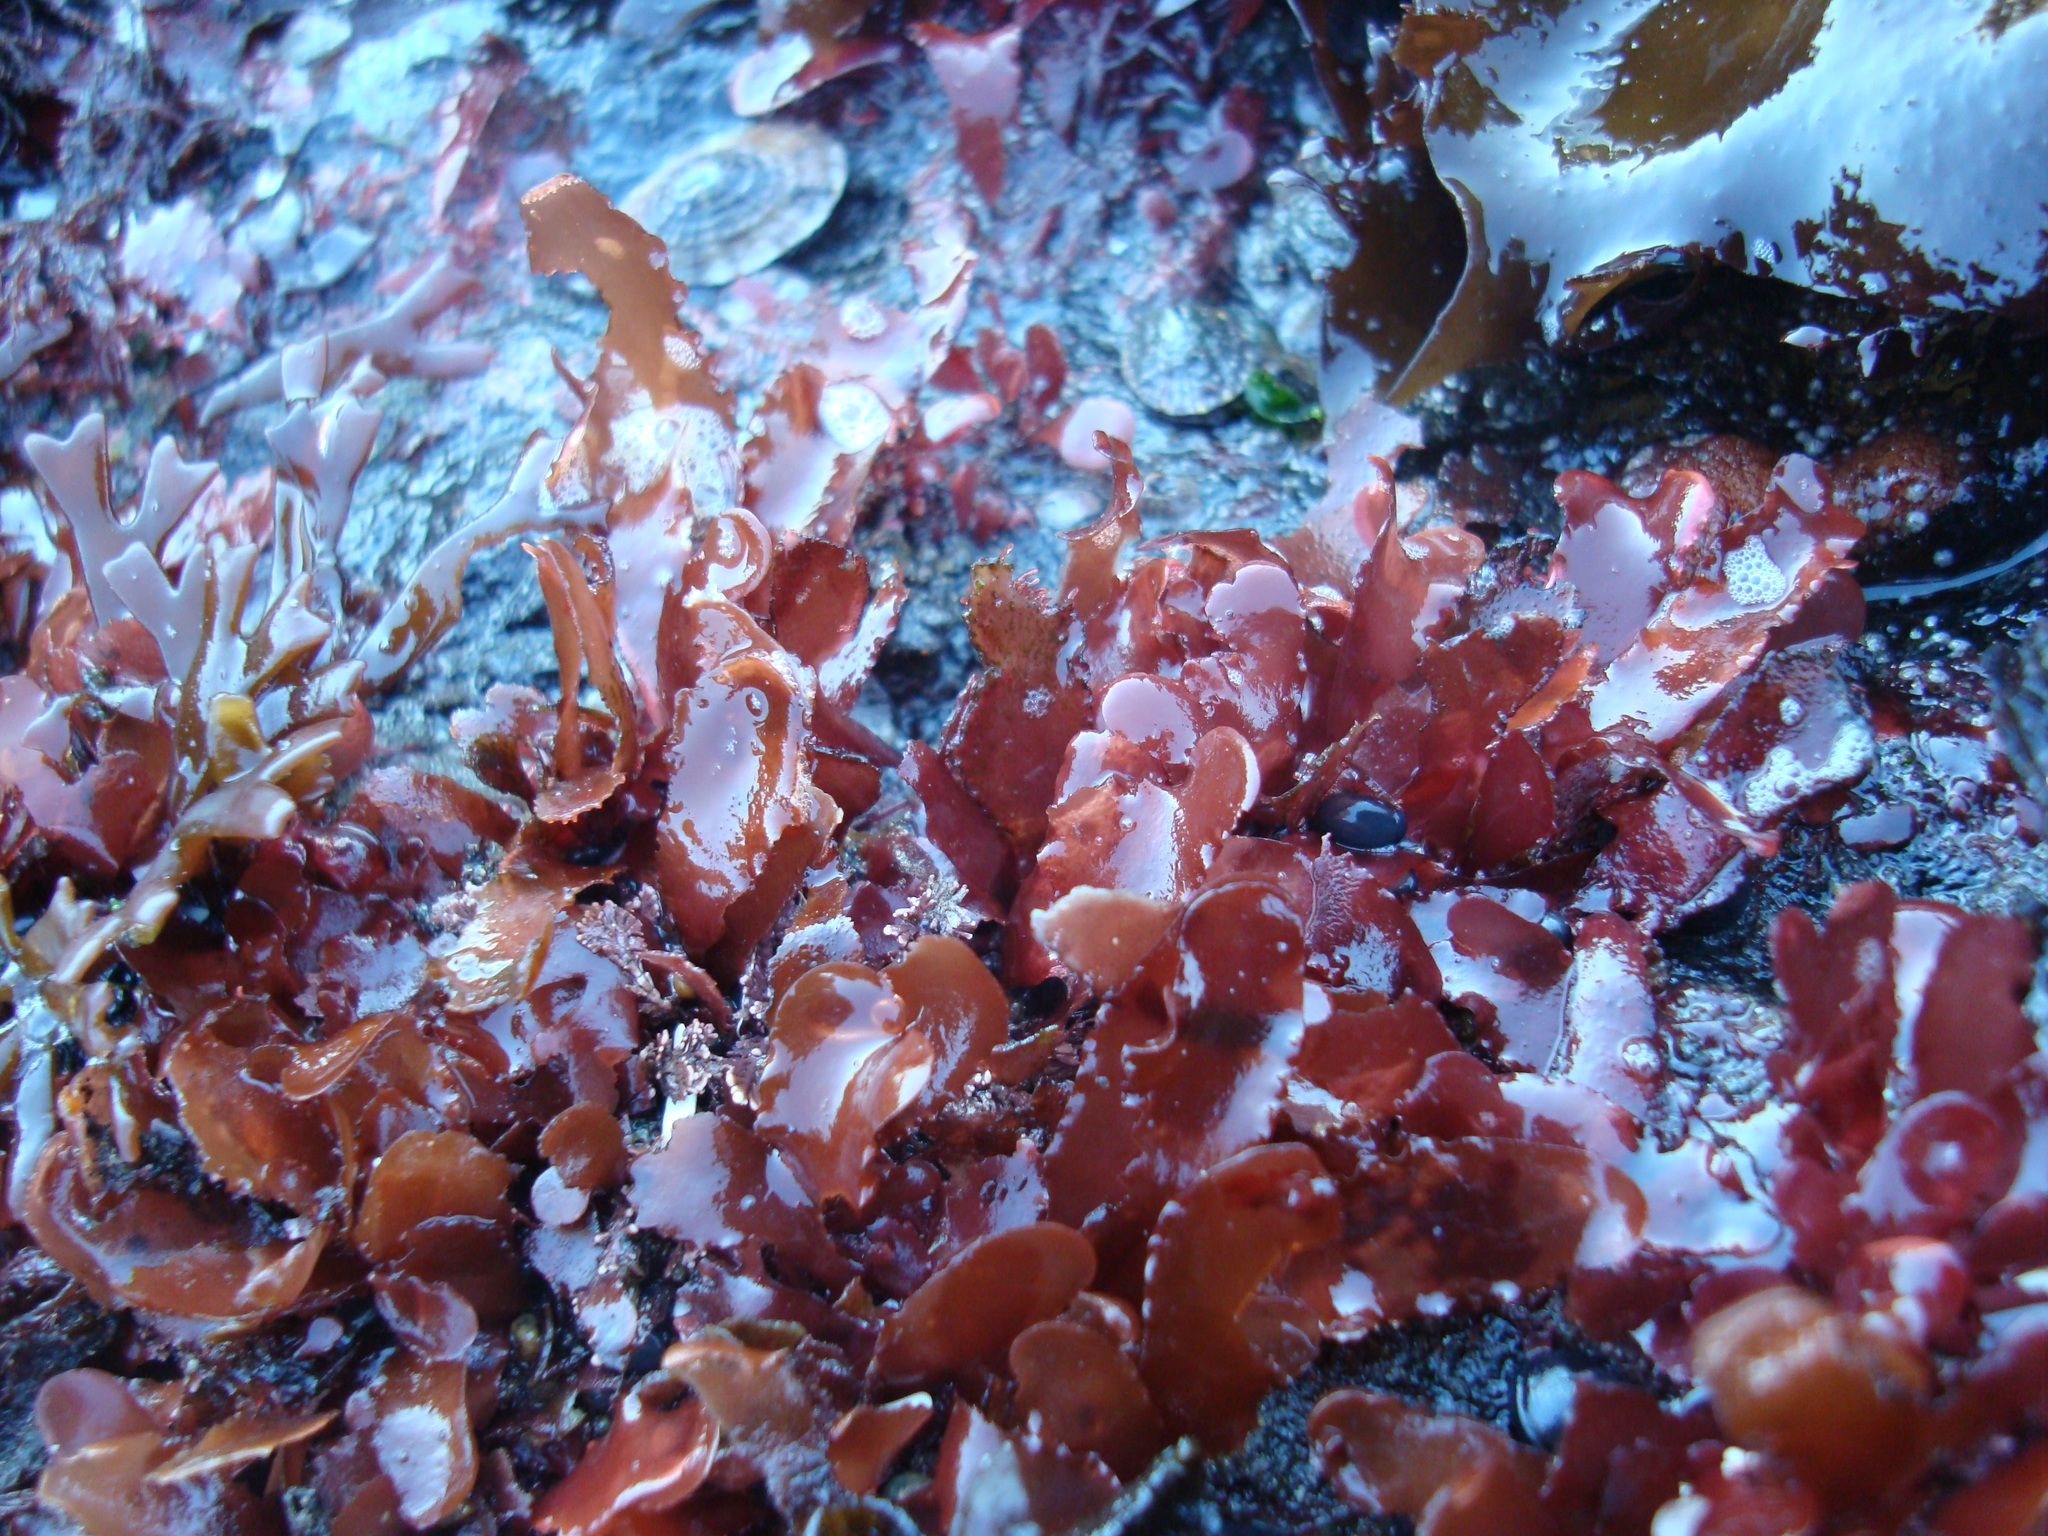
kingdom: Plantae
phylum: Rhodophyta
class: Florideophyceae
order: Gigartinales
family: Phyllophoraceae
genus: Schottera
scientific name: Schottera nicaeensis
